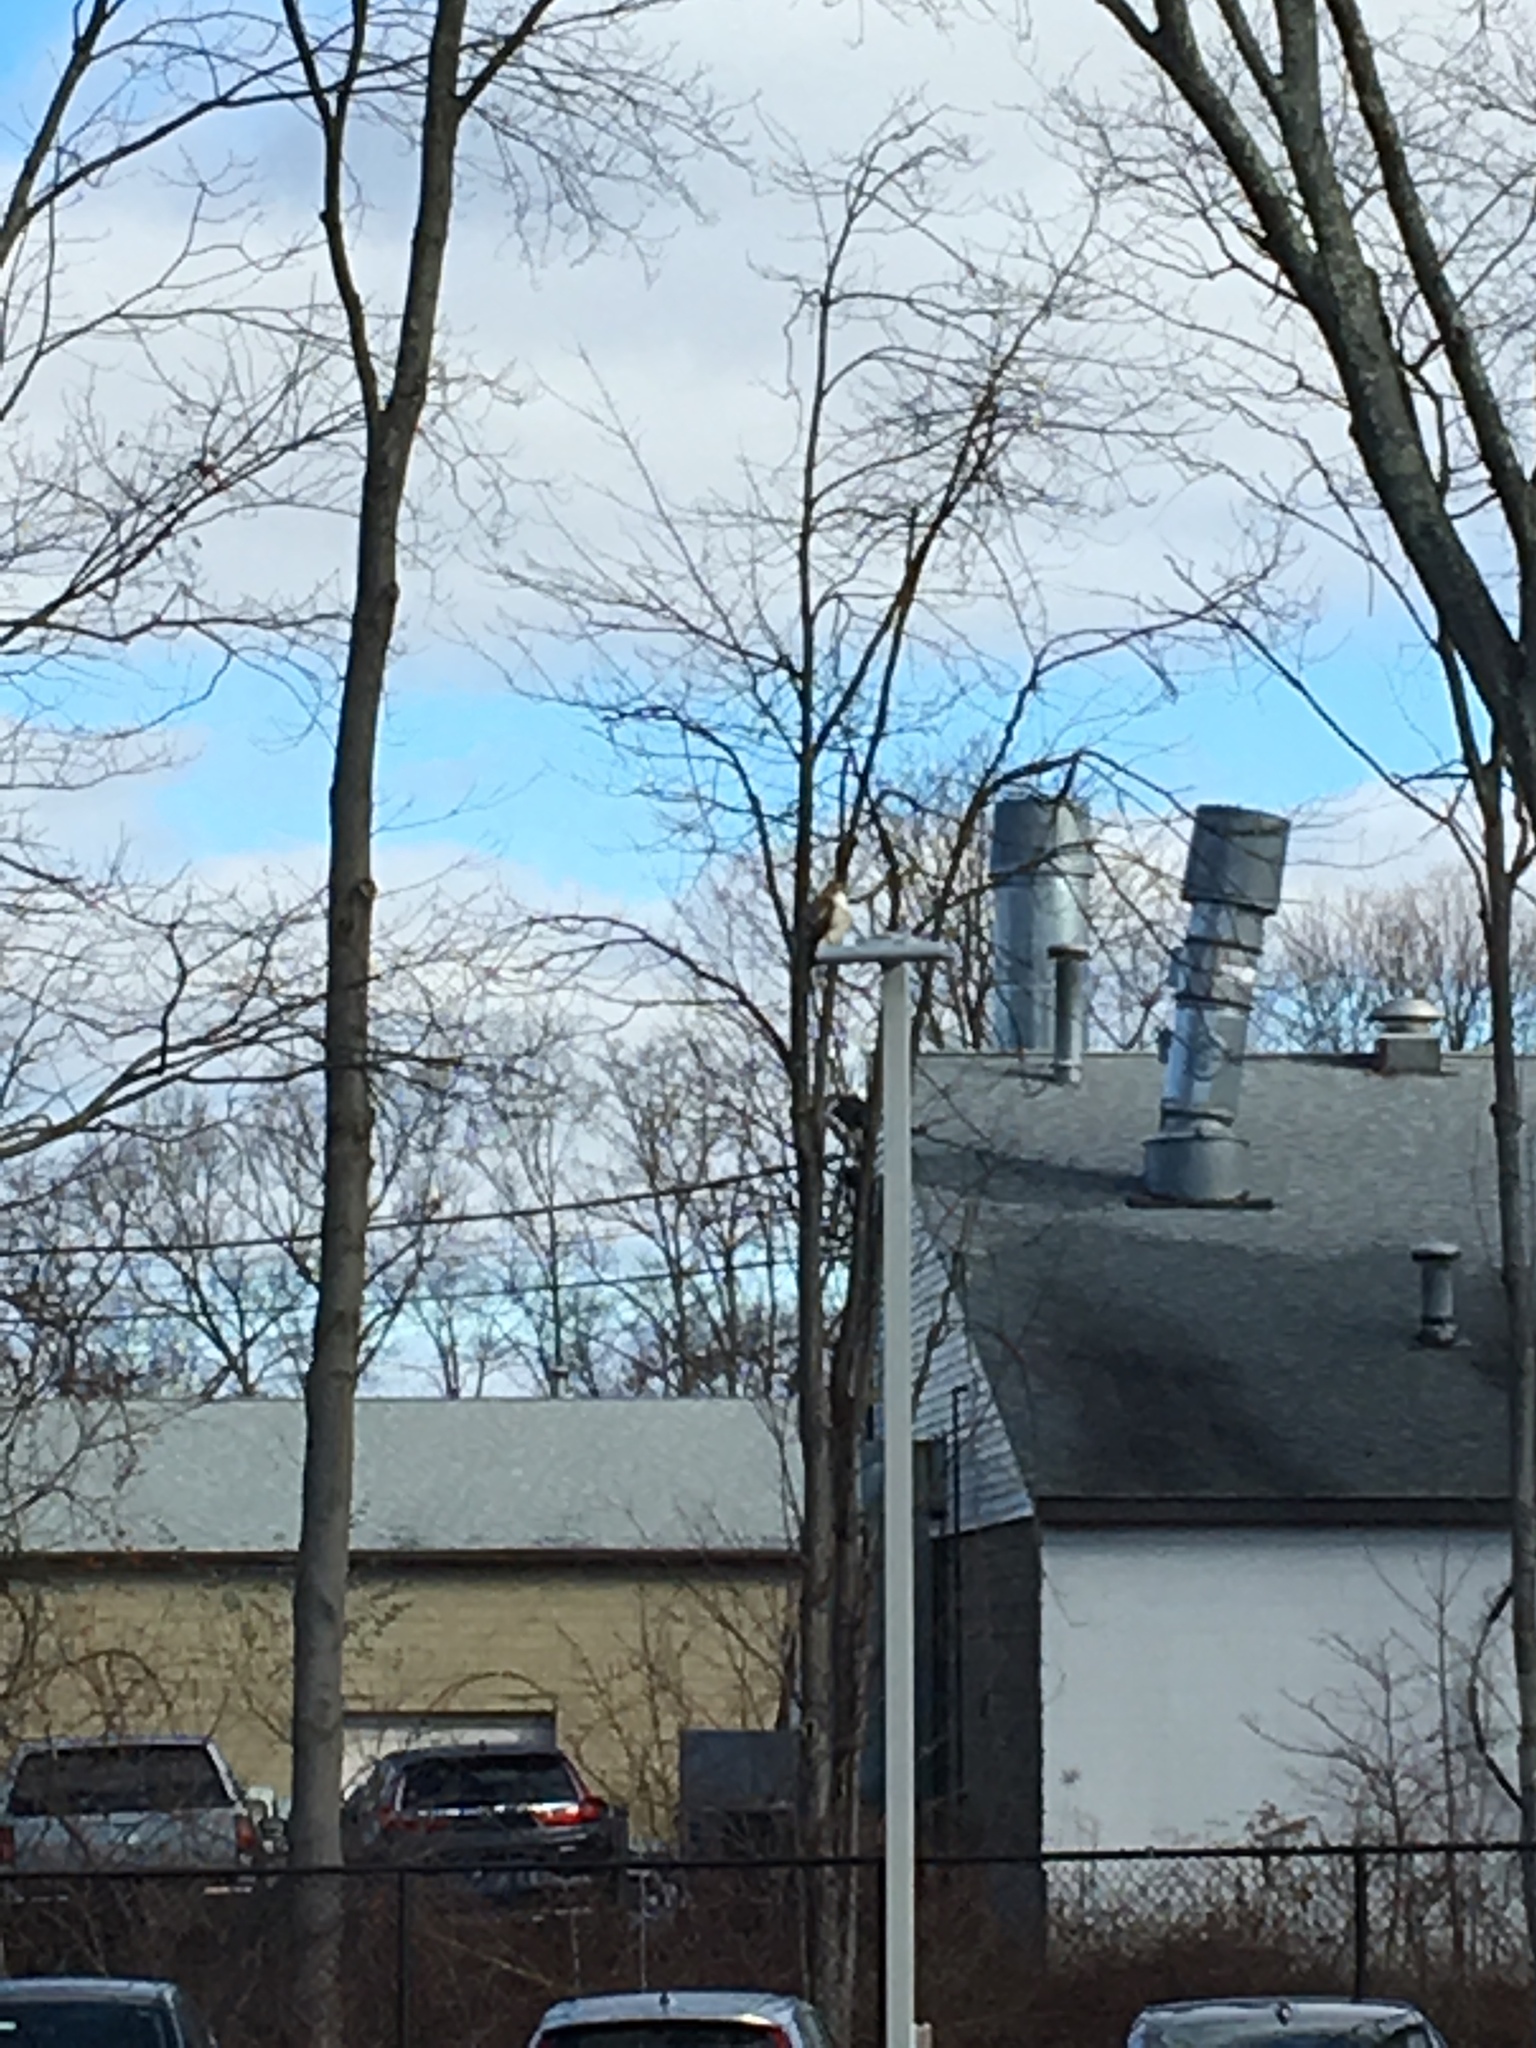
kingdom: Animalia
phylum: Chordata
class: Aves
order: Accipitriformes
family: Accipitridae
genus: Buteo
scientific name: Buteo jamaicensis
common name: Red-tailed hawk
